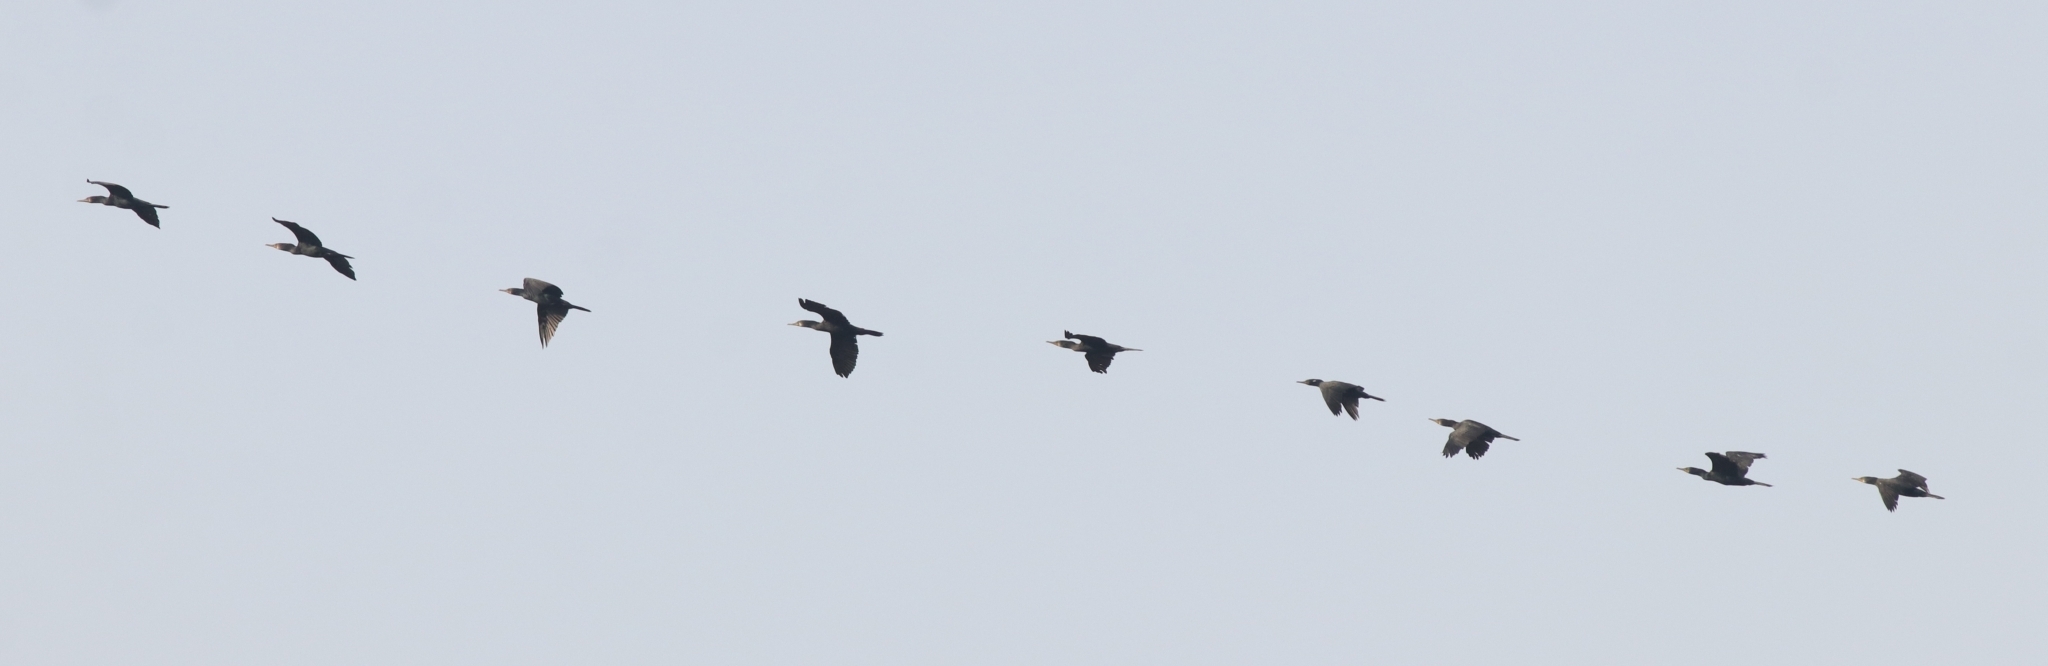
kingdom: Animalia
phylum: Chordata
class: Aves
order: Suliformes
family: Phalacrocoracidae
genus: Phalacrocorax
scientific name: Phalacrocorax fuscicollis
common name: Indian cormorant
